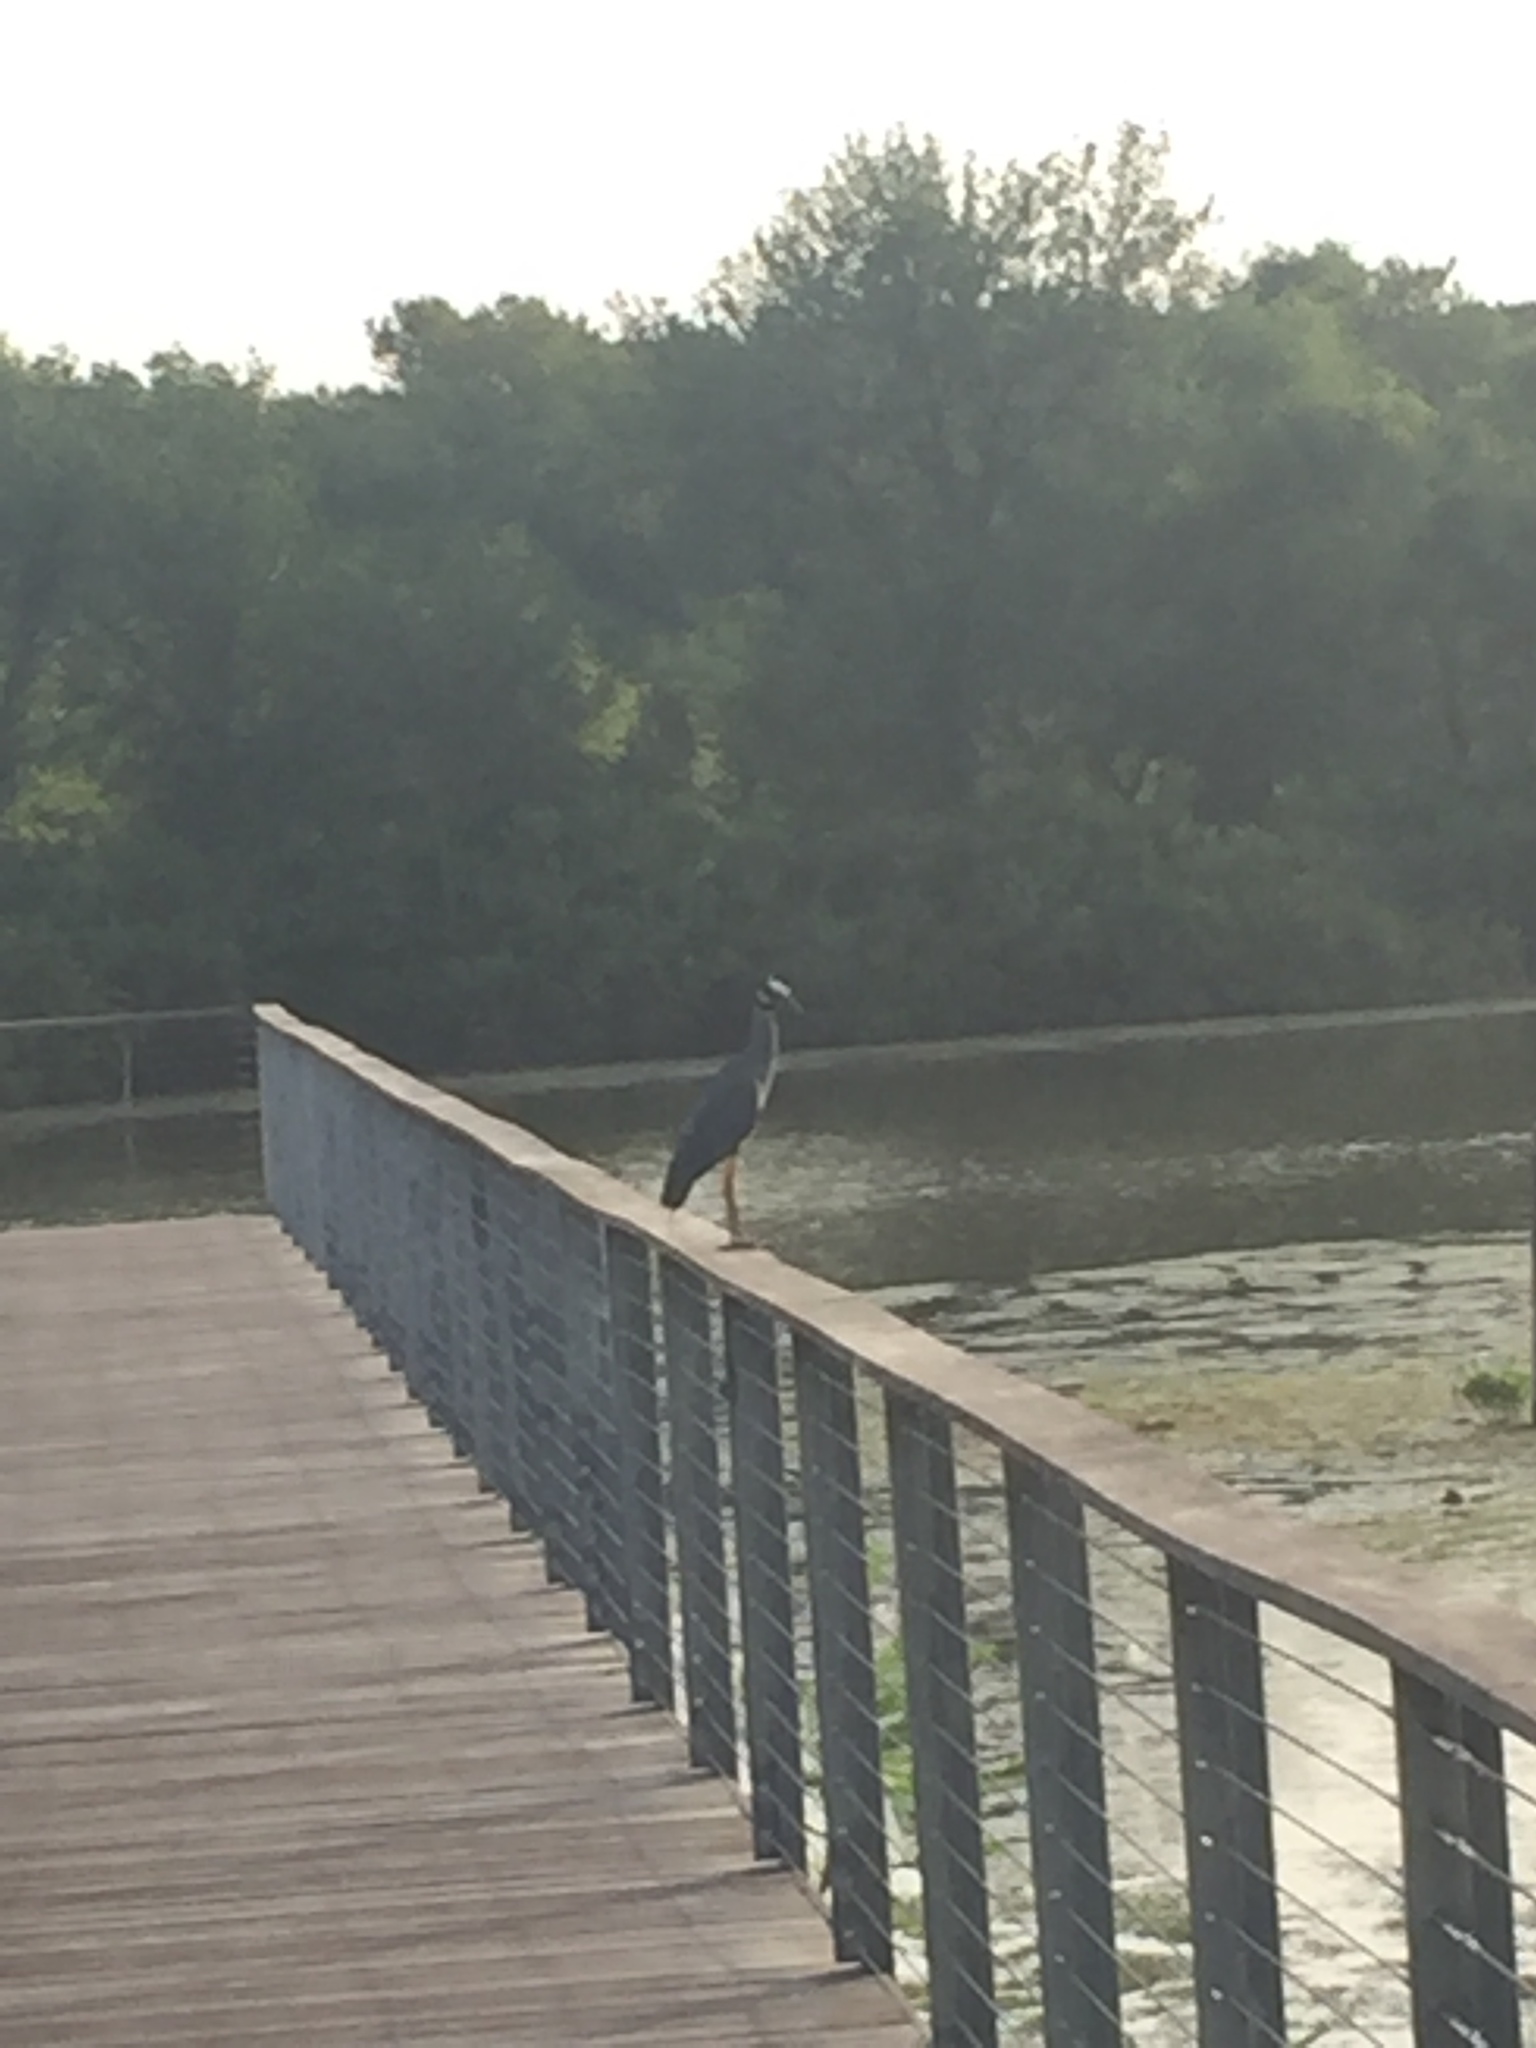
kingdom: Animalia
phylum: Chordata
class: Aves
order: Pelecaniformes
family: Ardeidae
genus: Nyctanassa
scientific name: Nyctanassa violacea
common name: Yellow-crowned night heron
